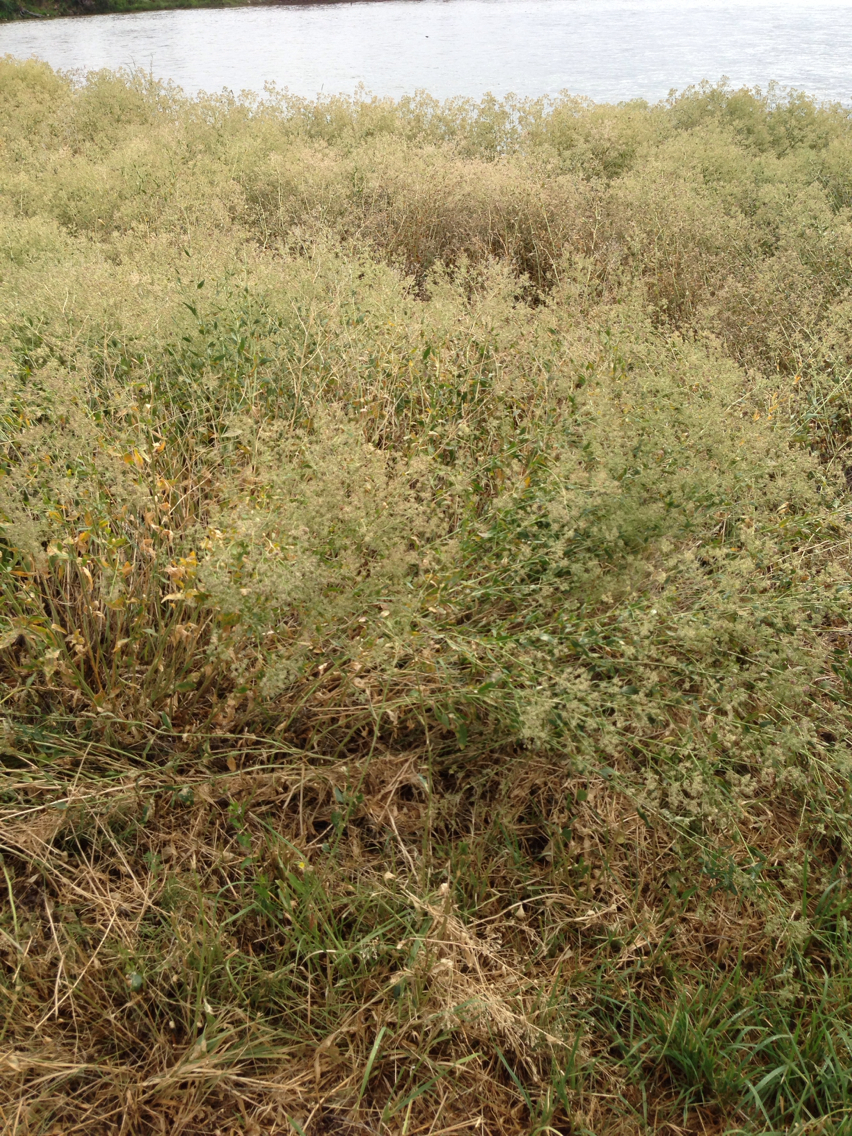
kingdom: Plantae
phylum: Tracheophyta
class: Magnoliopsida
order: Brassicales
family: Brassicaceae
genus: Lepidium
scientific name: Lepidium latifolium
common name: Dittander
